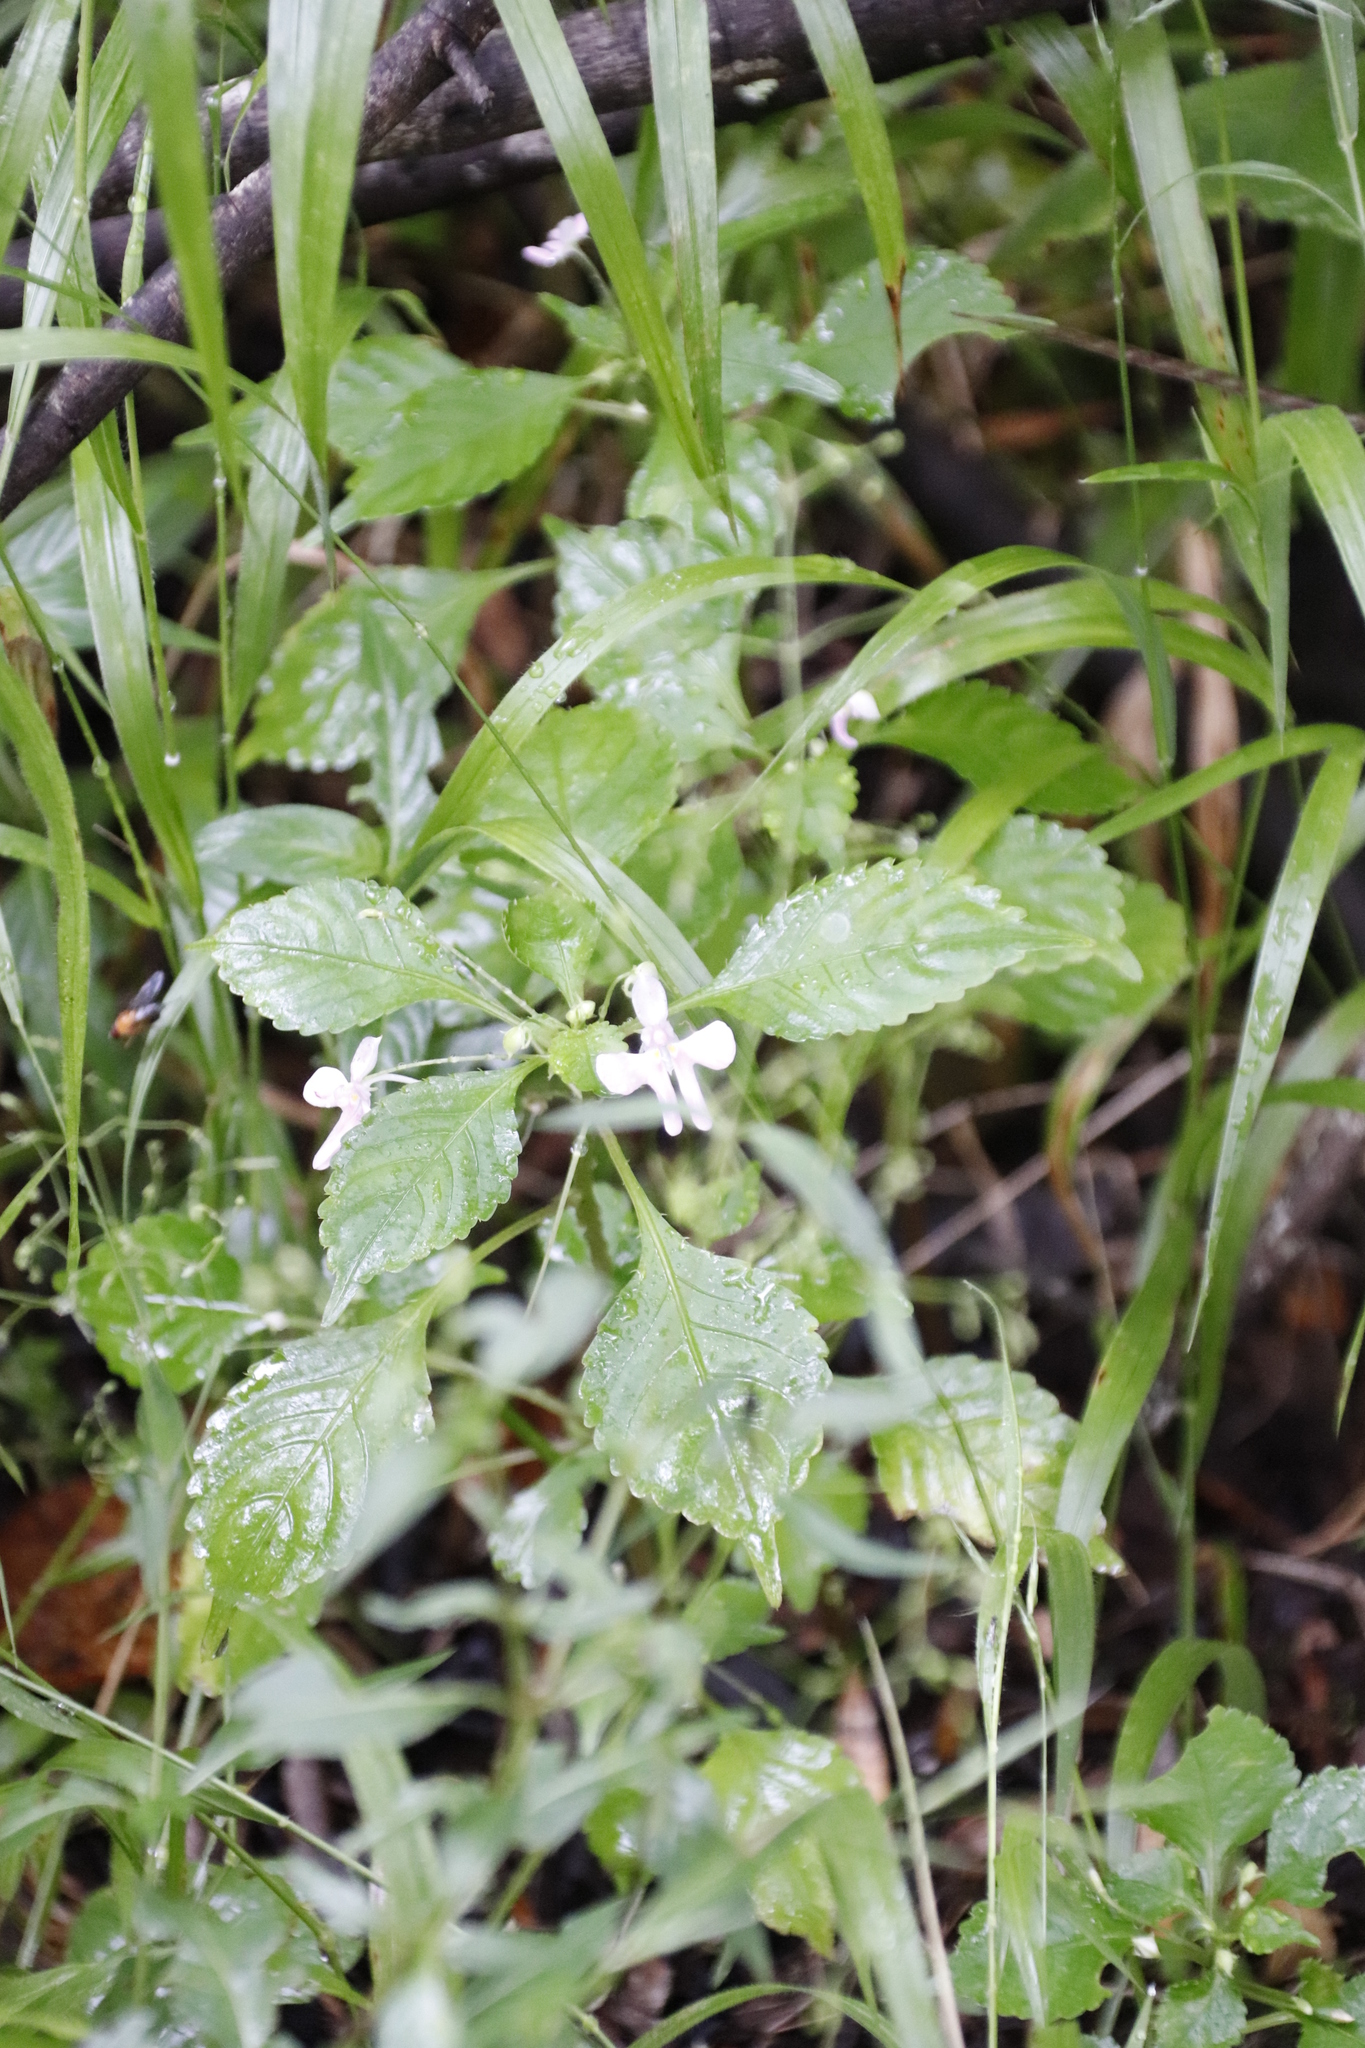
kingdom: Plantae
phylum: Tracheophyta
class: Magnoliopsida
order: Ericales
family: Balsaminaceae
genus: Impatiens
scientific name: Impatiens hochstetteri
